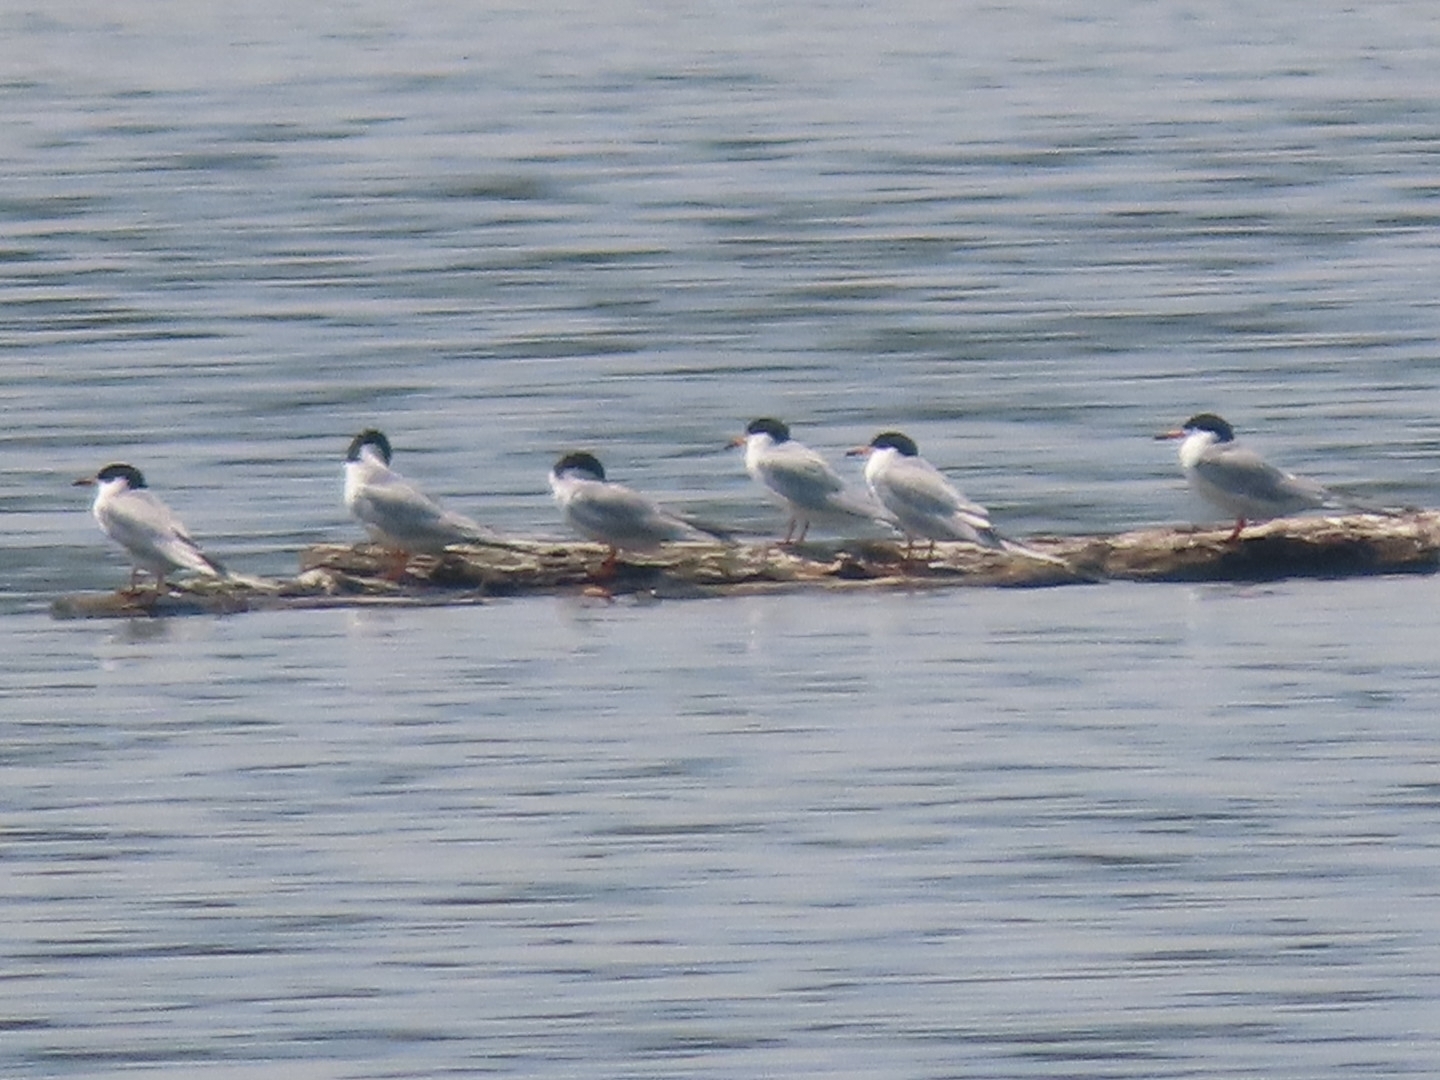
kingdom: Animalia
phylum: Chordata
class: Aves
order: Charadriiformes
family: Laridae
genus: Sterna
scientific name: Sterna forsteri
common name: Forster's tern
